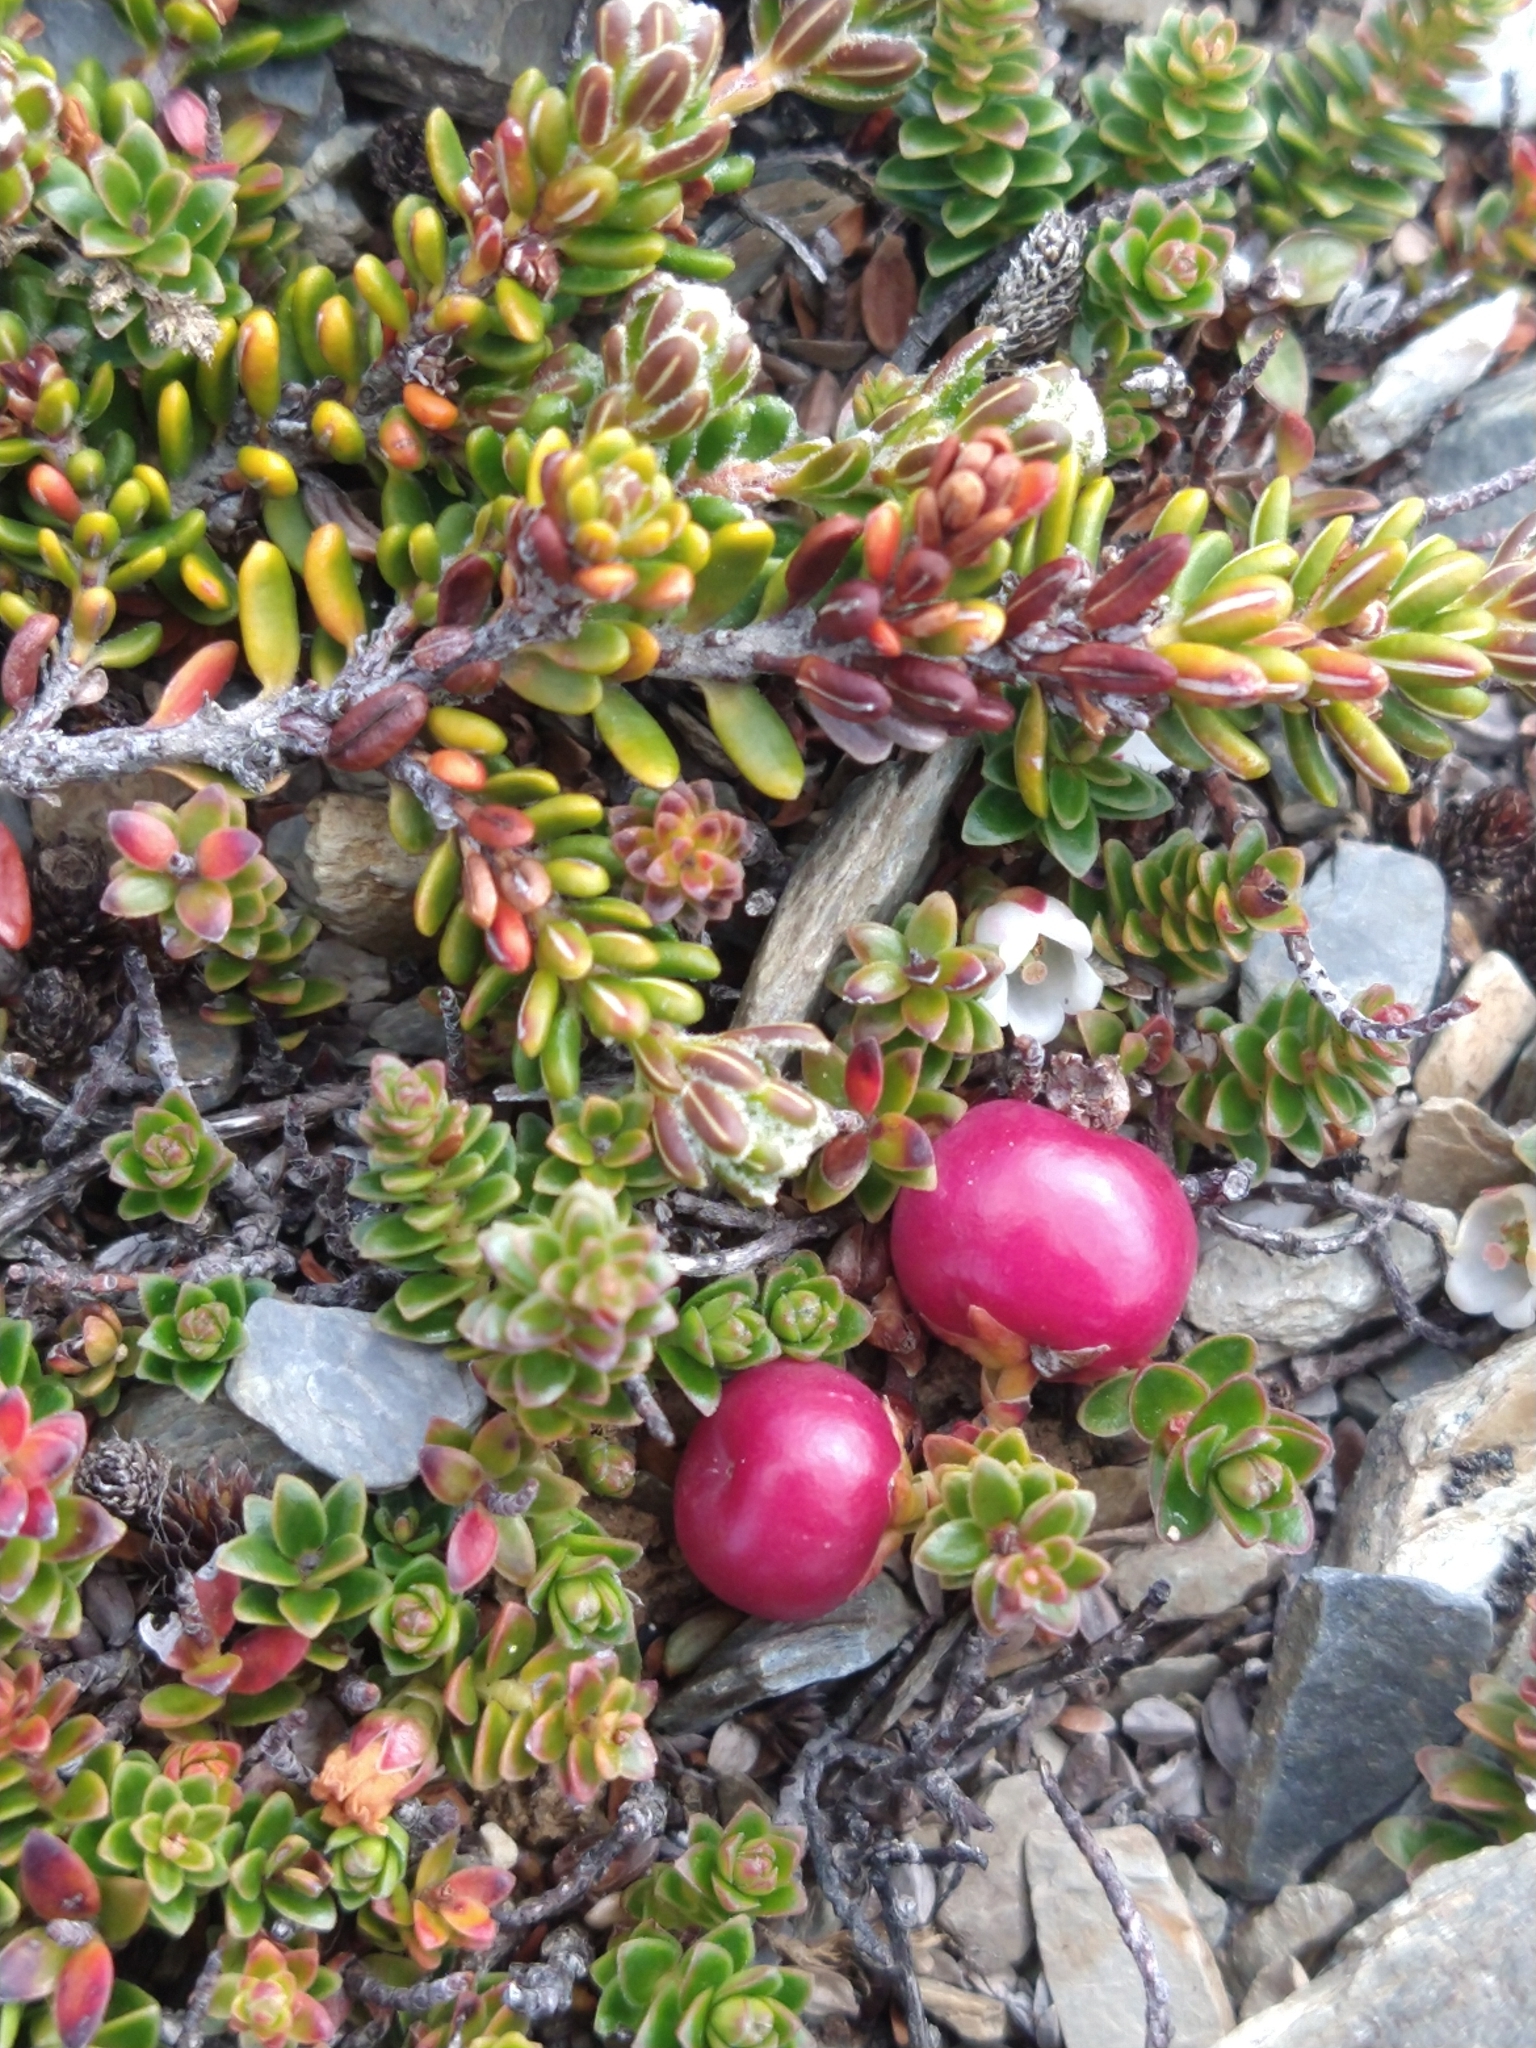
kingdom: Plantae
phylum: Tracheophyta
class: Magnoliopsida
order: Ericales
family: Ericaceae
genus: Empetrum
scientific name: Empetrum rubrum
